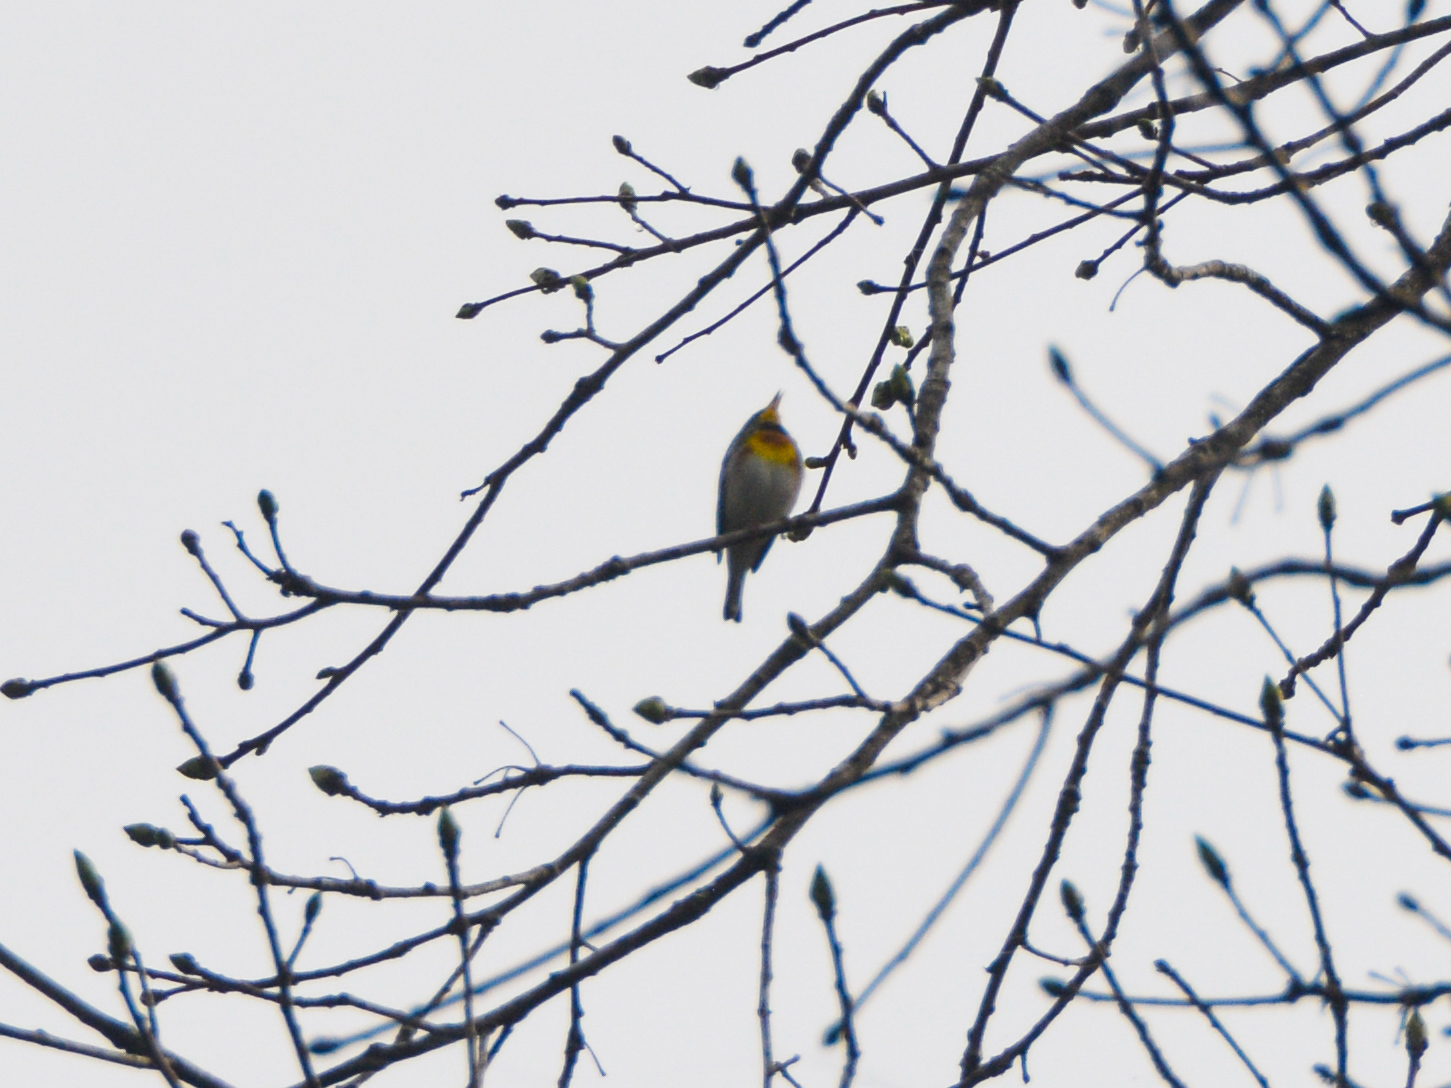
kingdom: Animalia
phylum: Chordata
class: Aves
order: Passeriformes
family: Parulidae
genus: Setophaga
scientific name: Setophaga americana
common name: Northern parula
